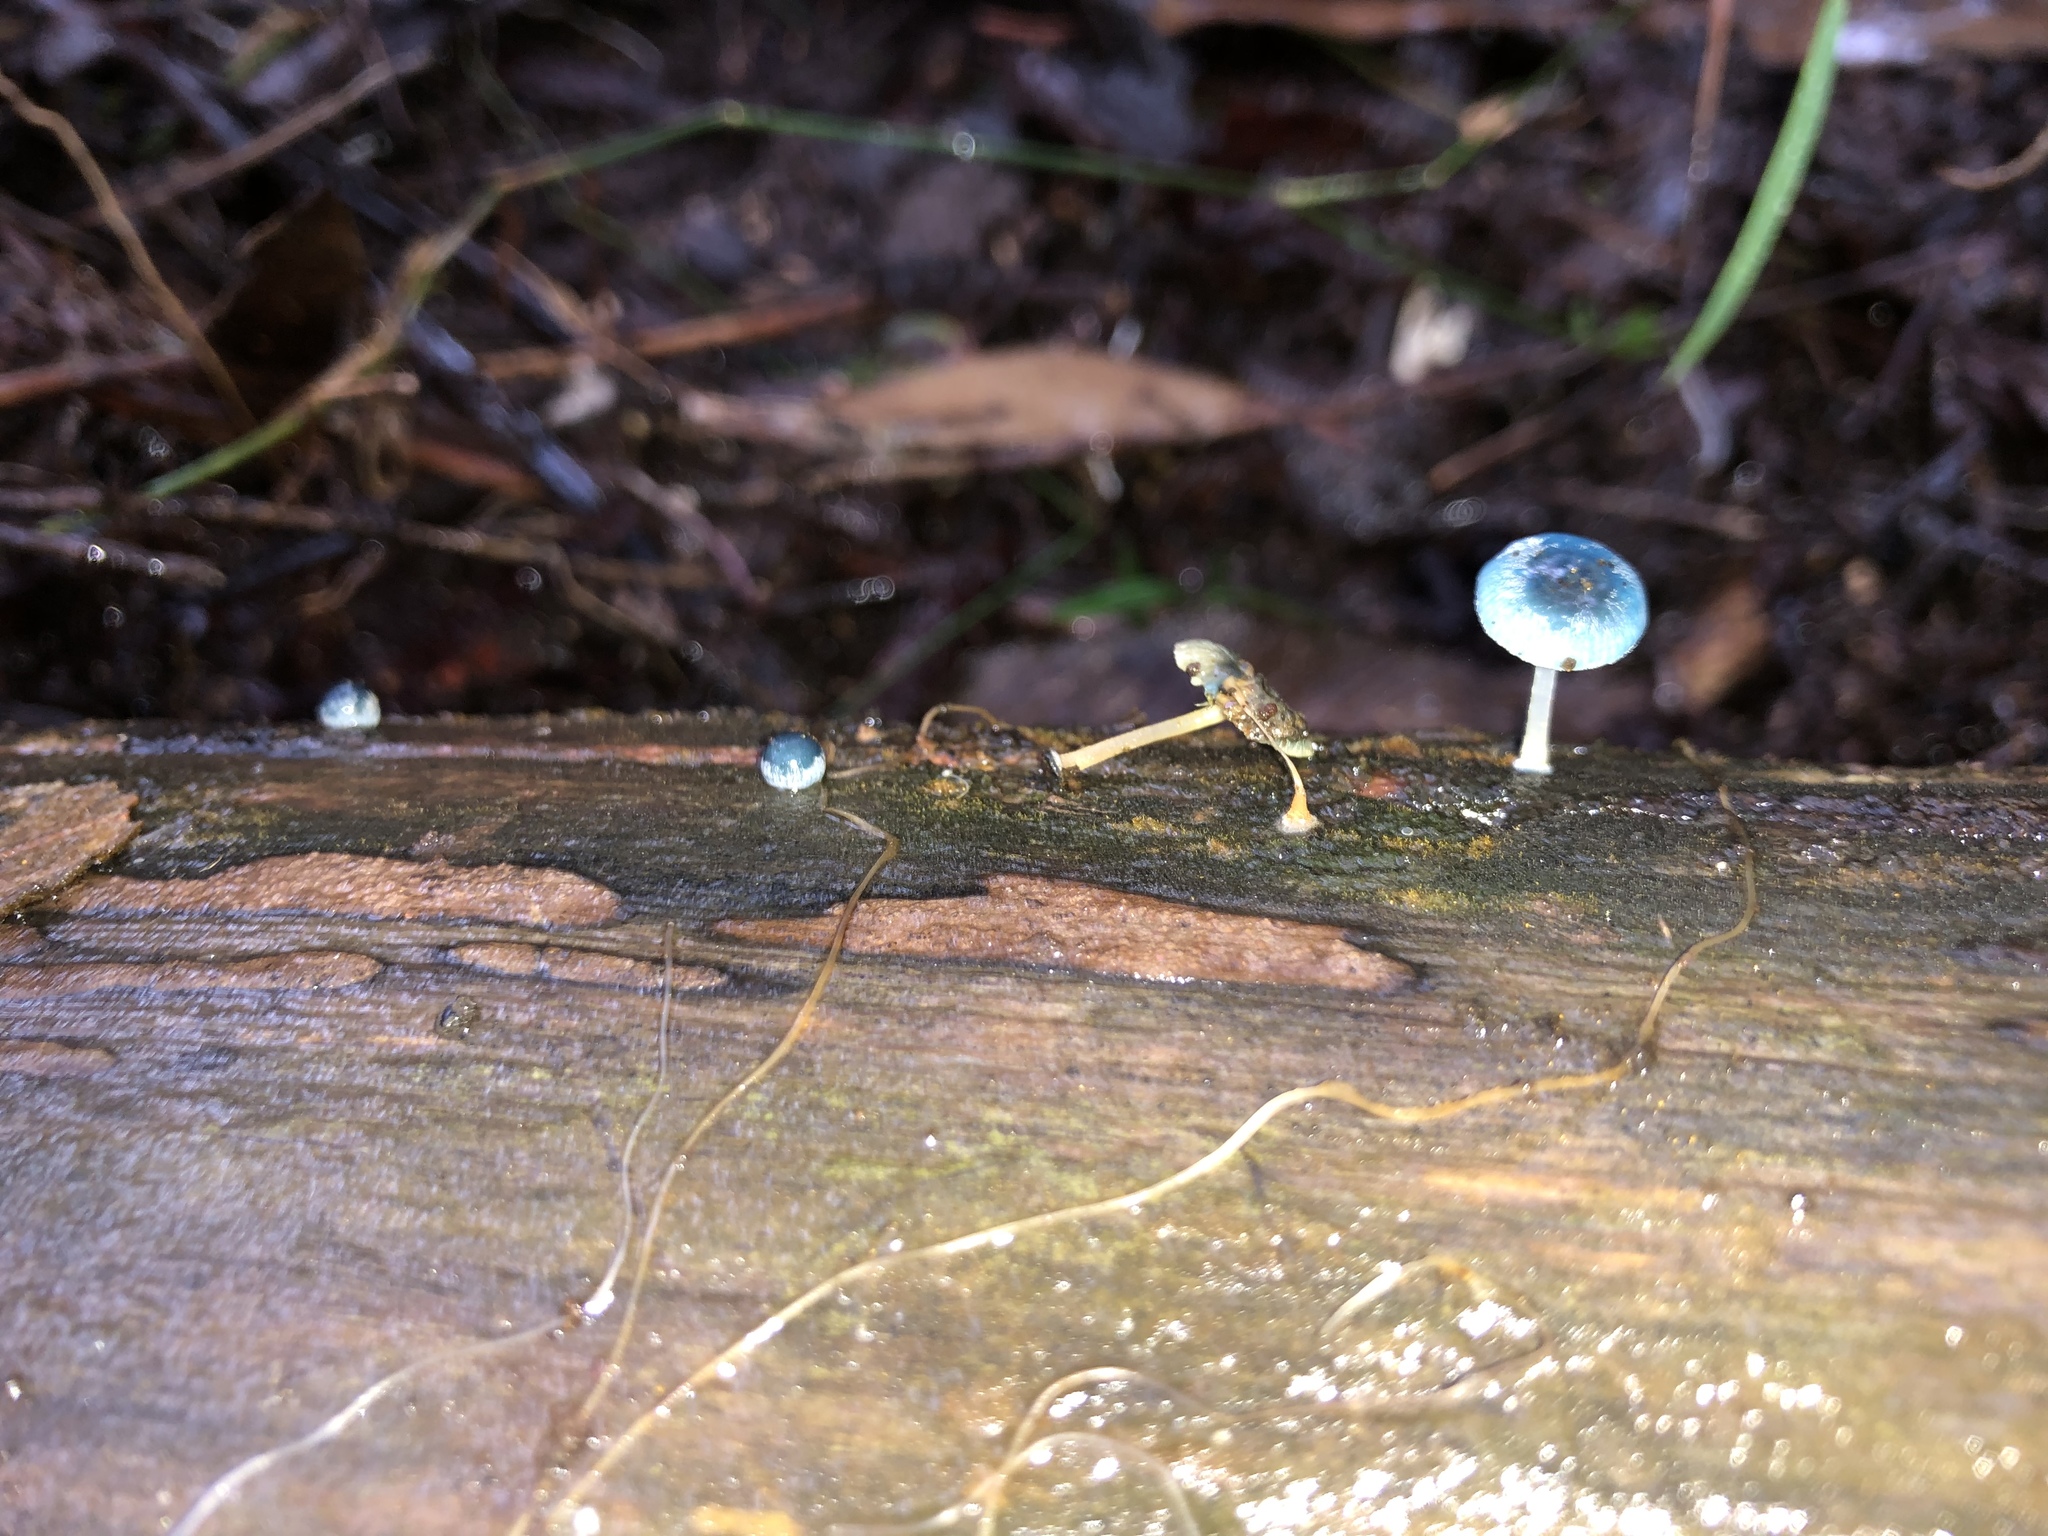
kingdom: Fungi
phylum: Basidiomycota
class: Agaricomycetes
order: Agaricales
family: Mycenaceae
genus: Mycena
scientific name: Mycena interrupta
